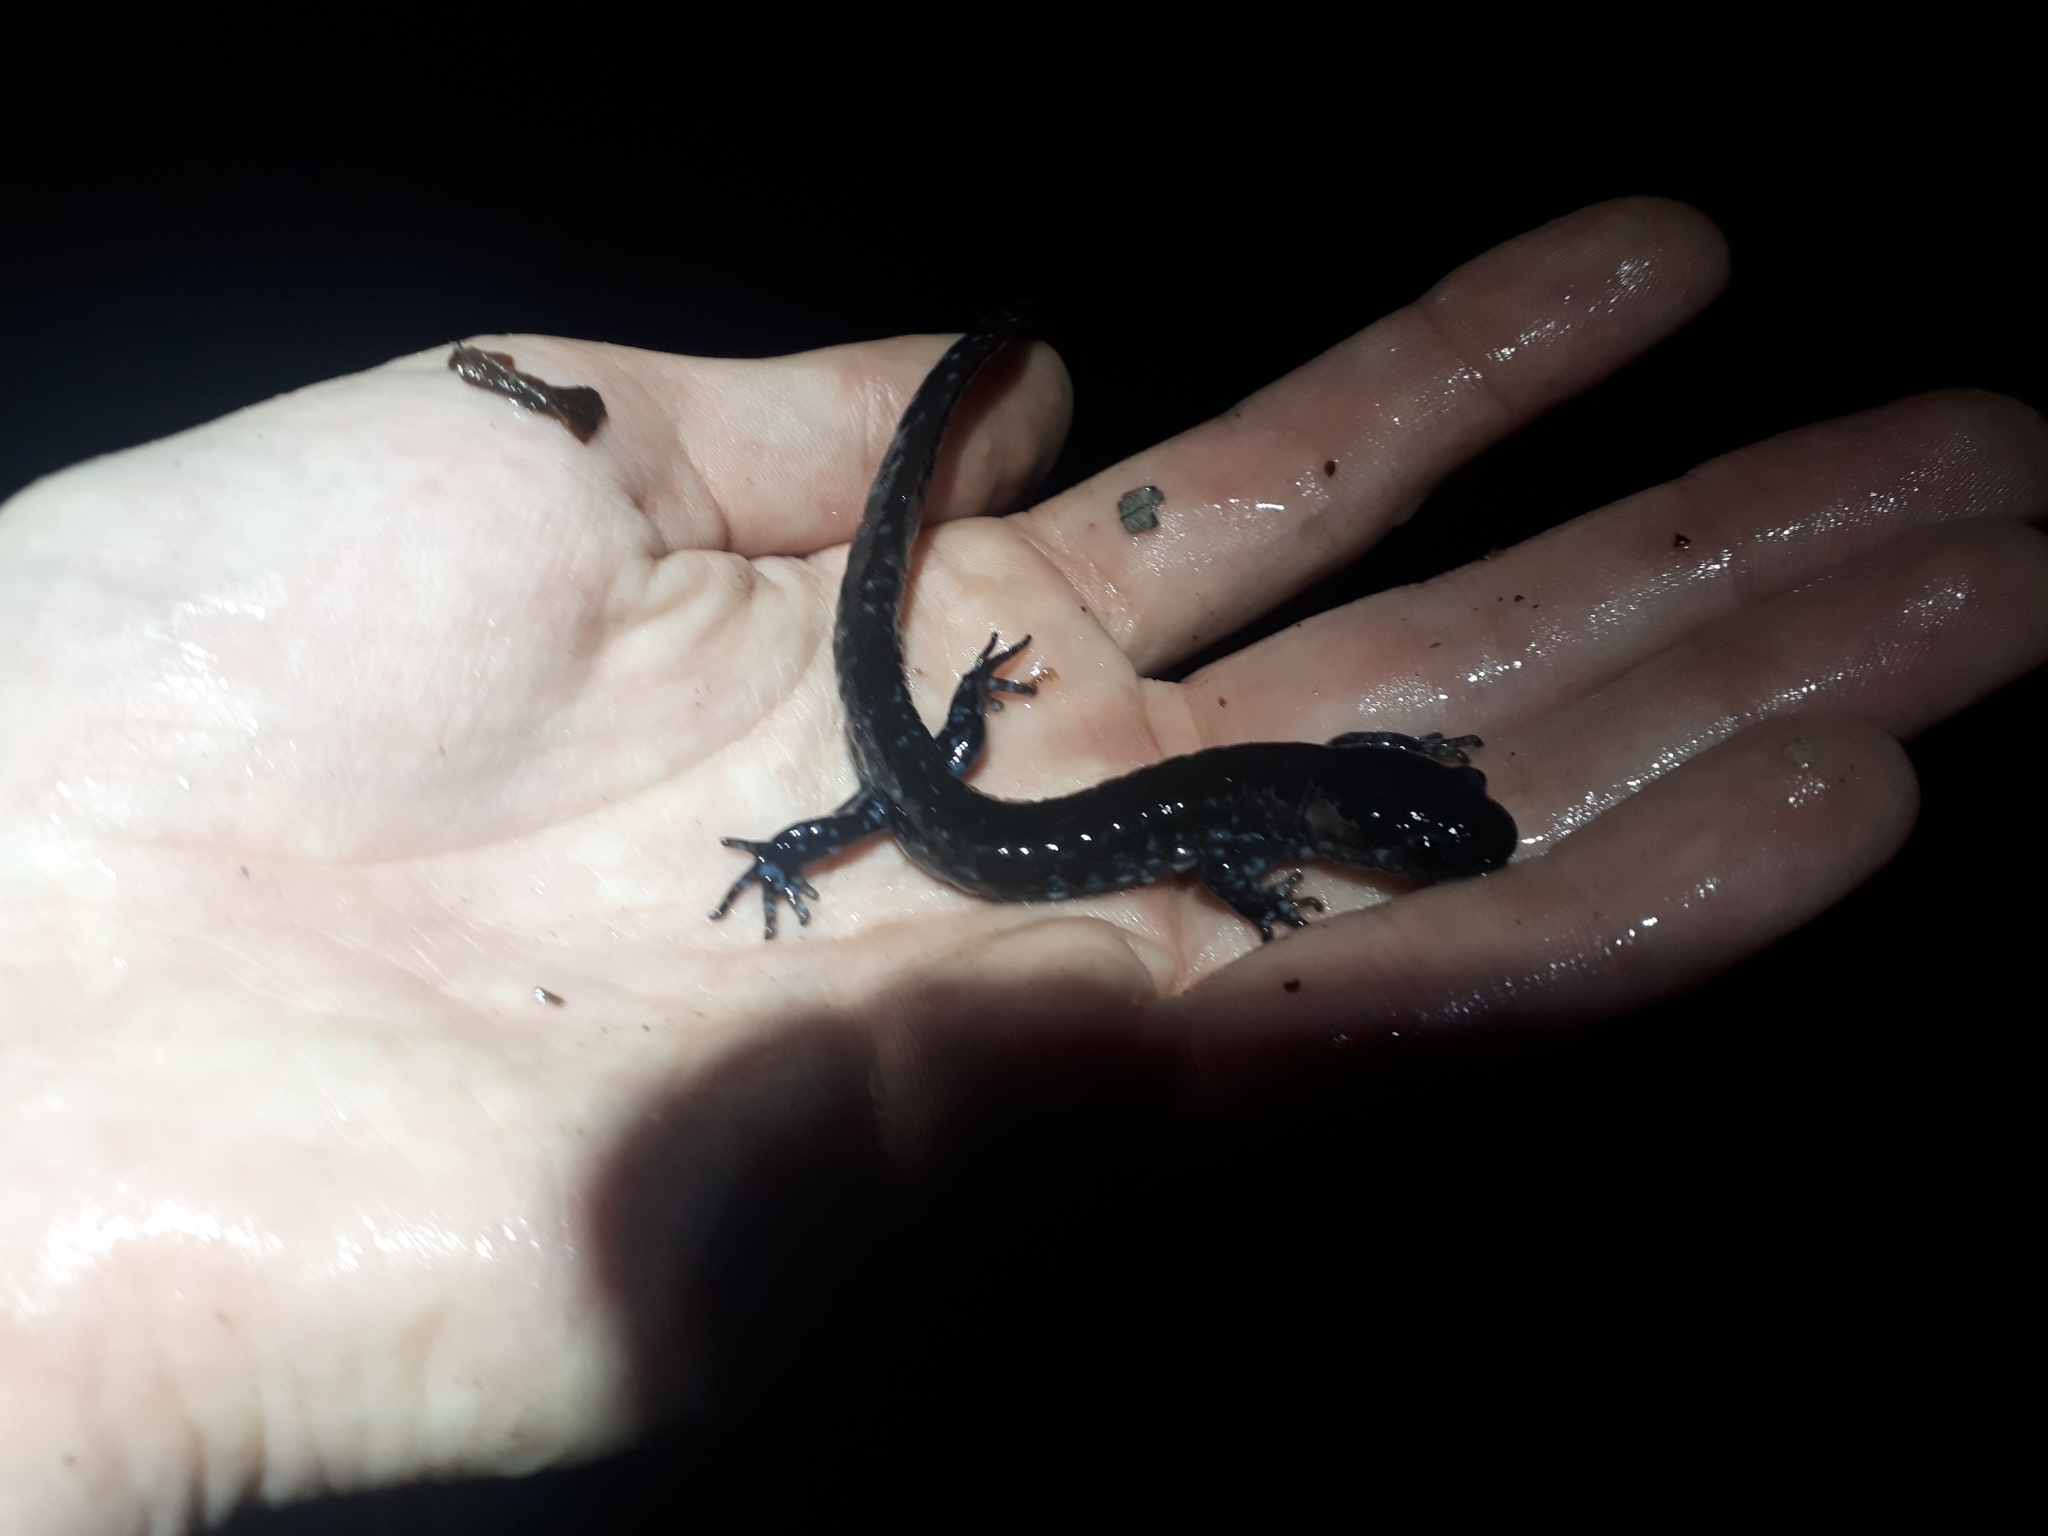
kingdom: Animalia
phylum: Chordata
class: Amphibia
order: Caudata
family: Ambystomatidae
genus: Ambystoma
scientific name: Ambystoma unisexual
